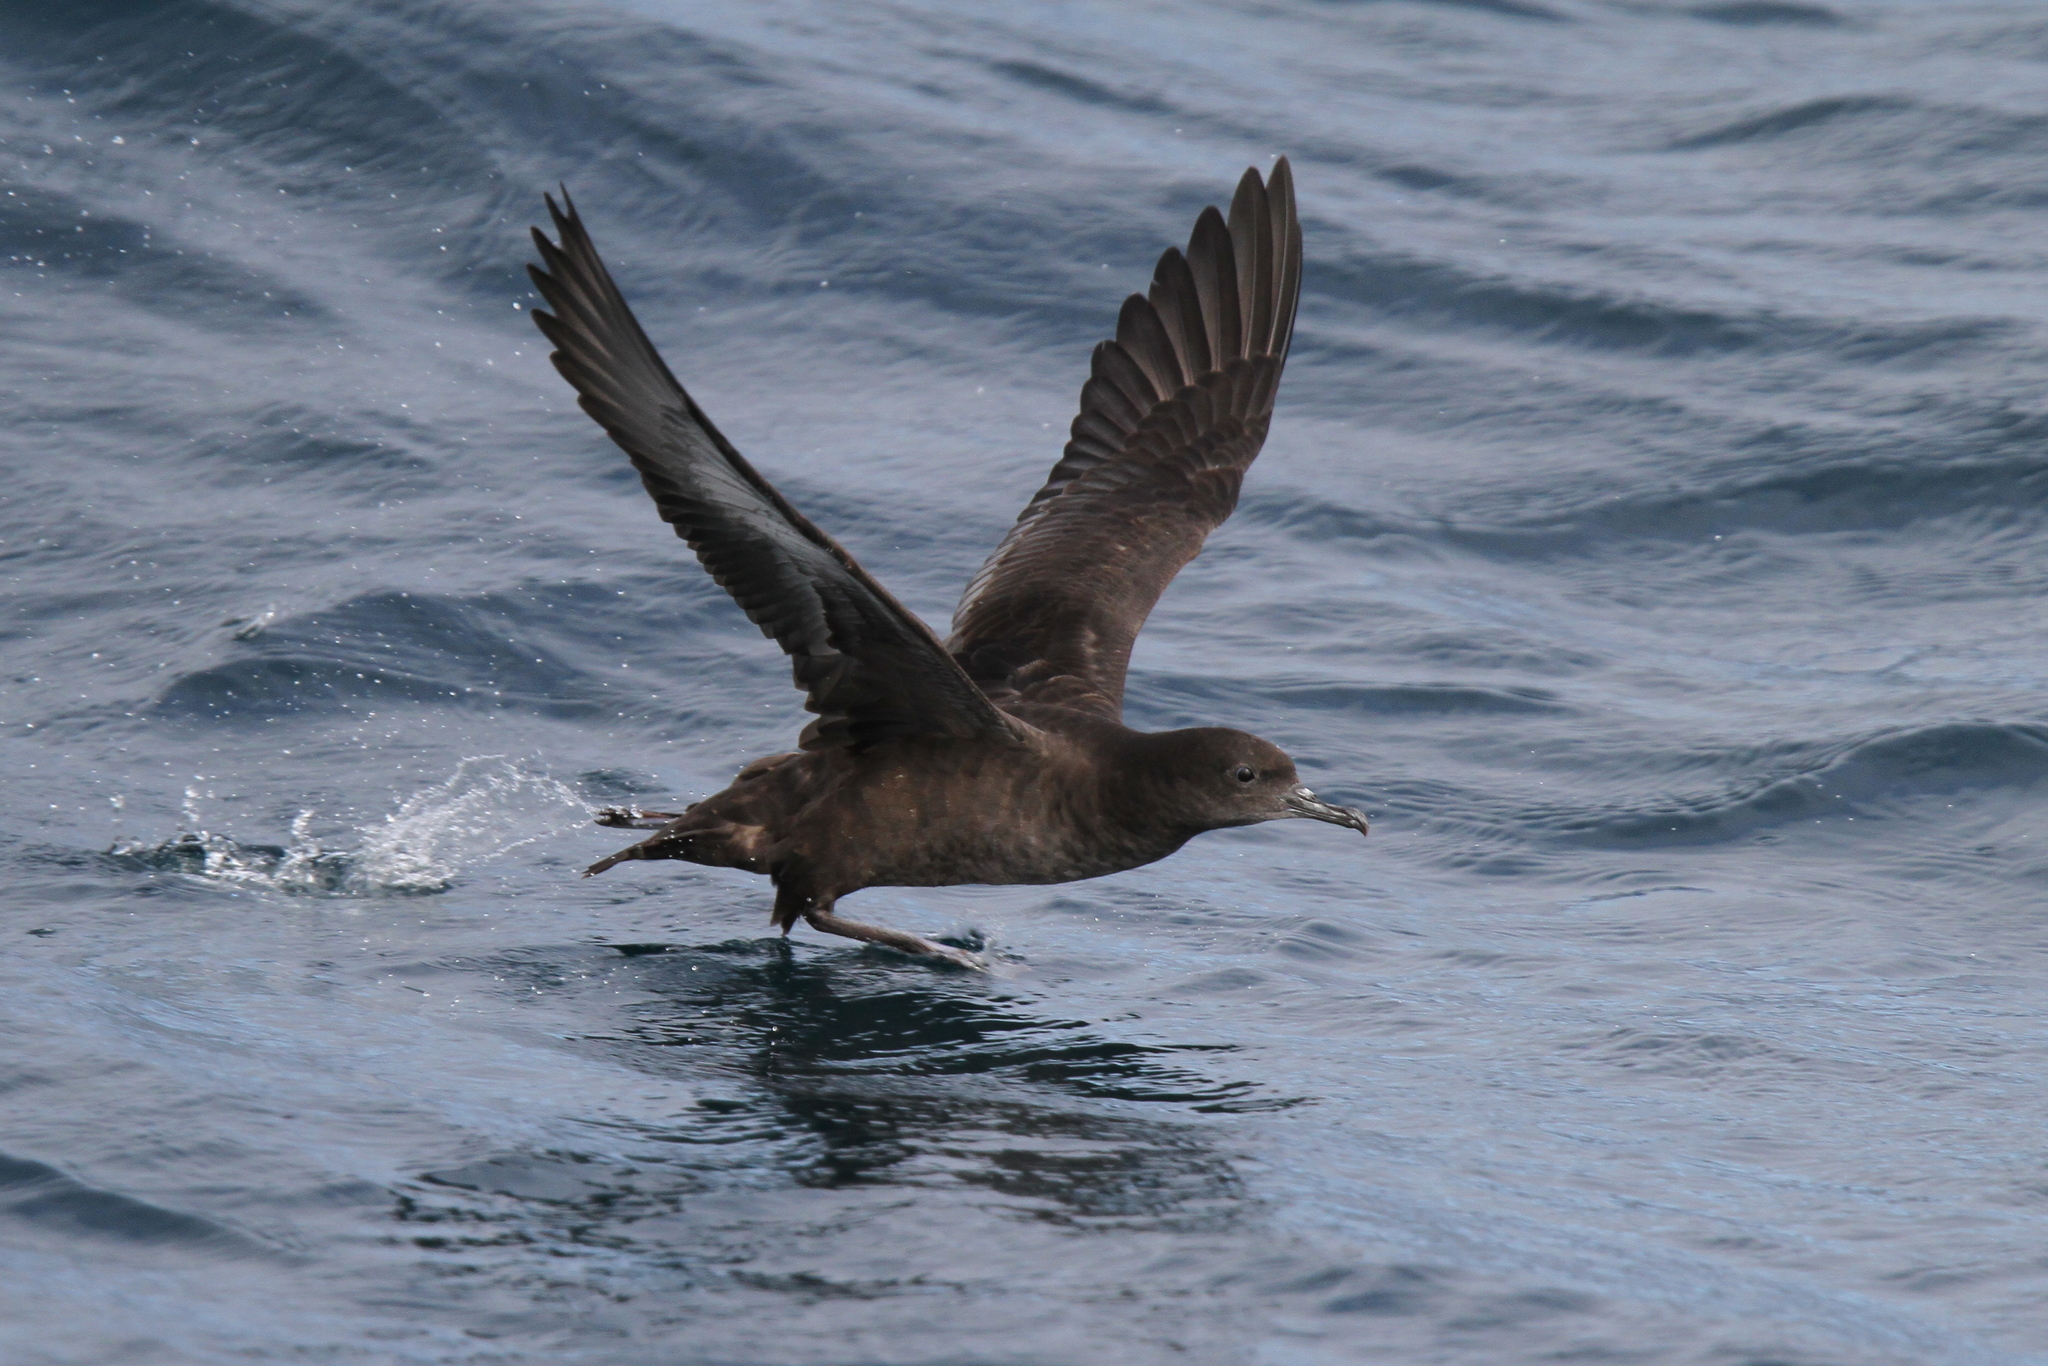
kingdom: Animalia
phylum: Chordata
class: Aves
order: Procellariiformes
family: Procellariidae
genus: Puffinus
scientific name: Puffinus griseus
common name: Sooty shearwater
